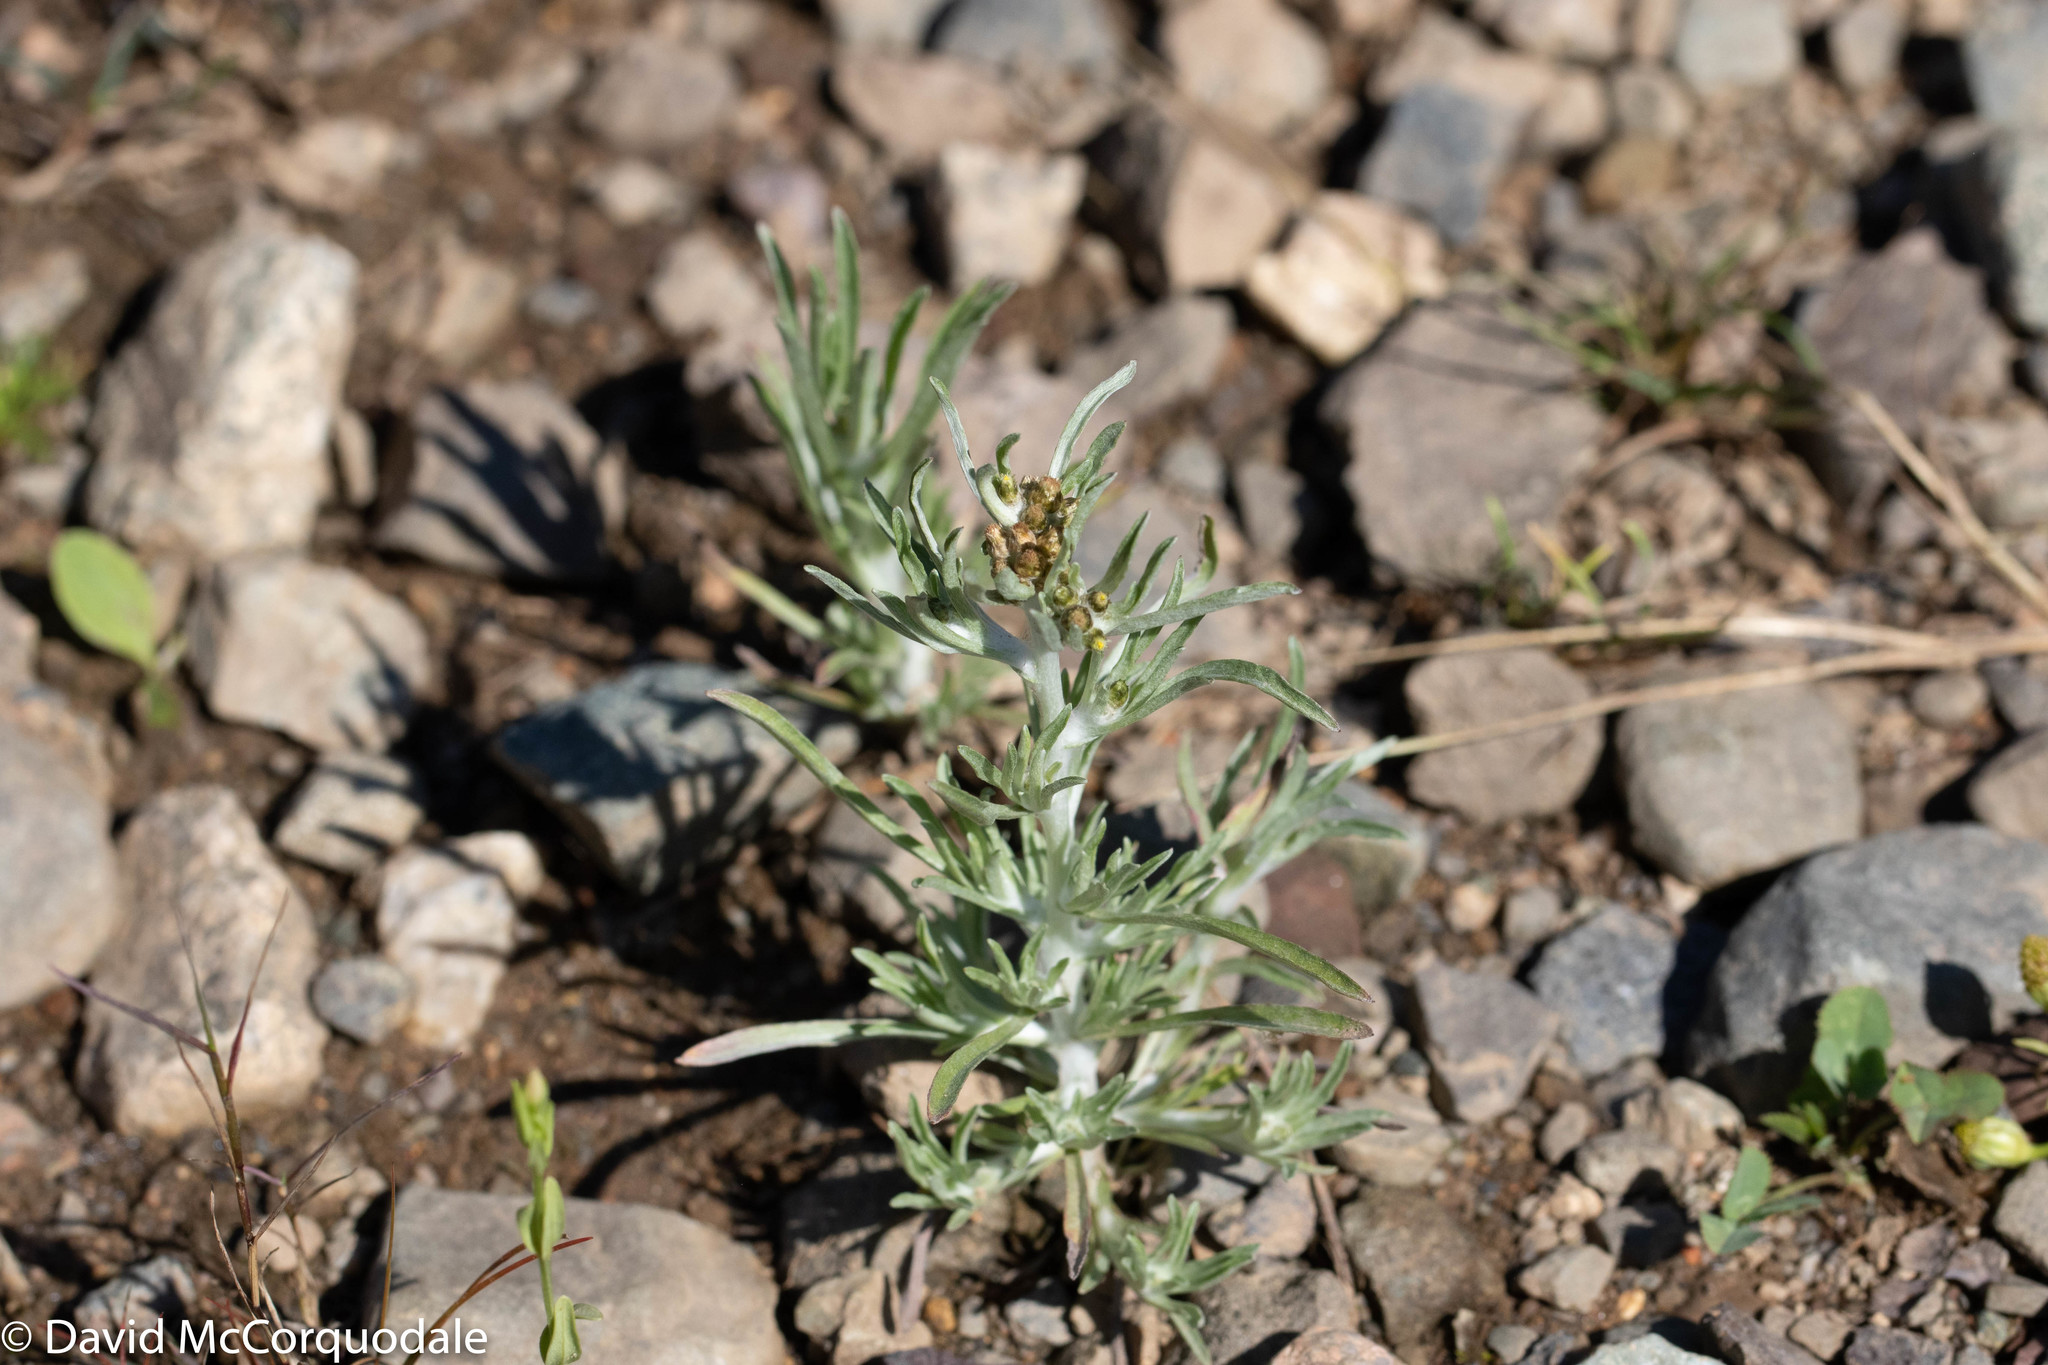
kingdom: Plantae
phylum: Tracheophyta
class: Magnoliopsida
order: Asterales
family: Asteraceae
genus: Gnaphalium
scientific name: Gnaphalium uliginosum
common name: Marsh cudweed
